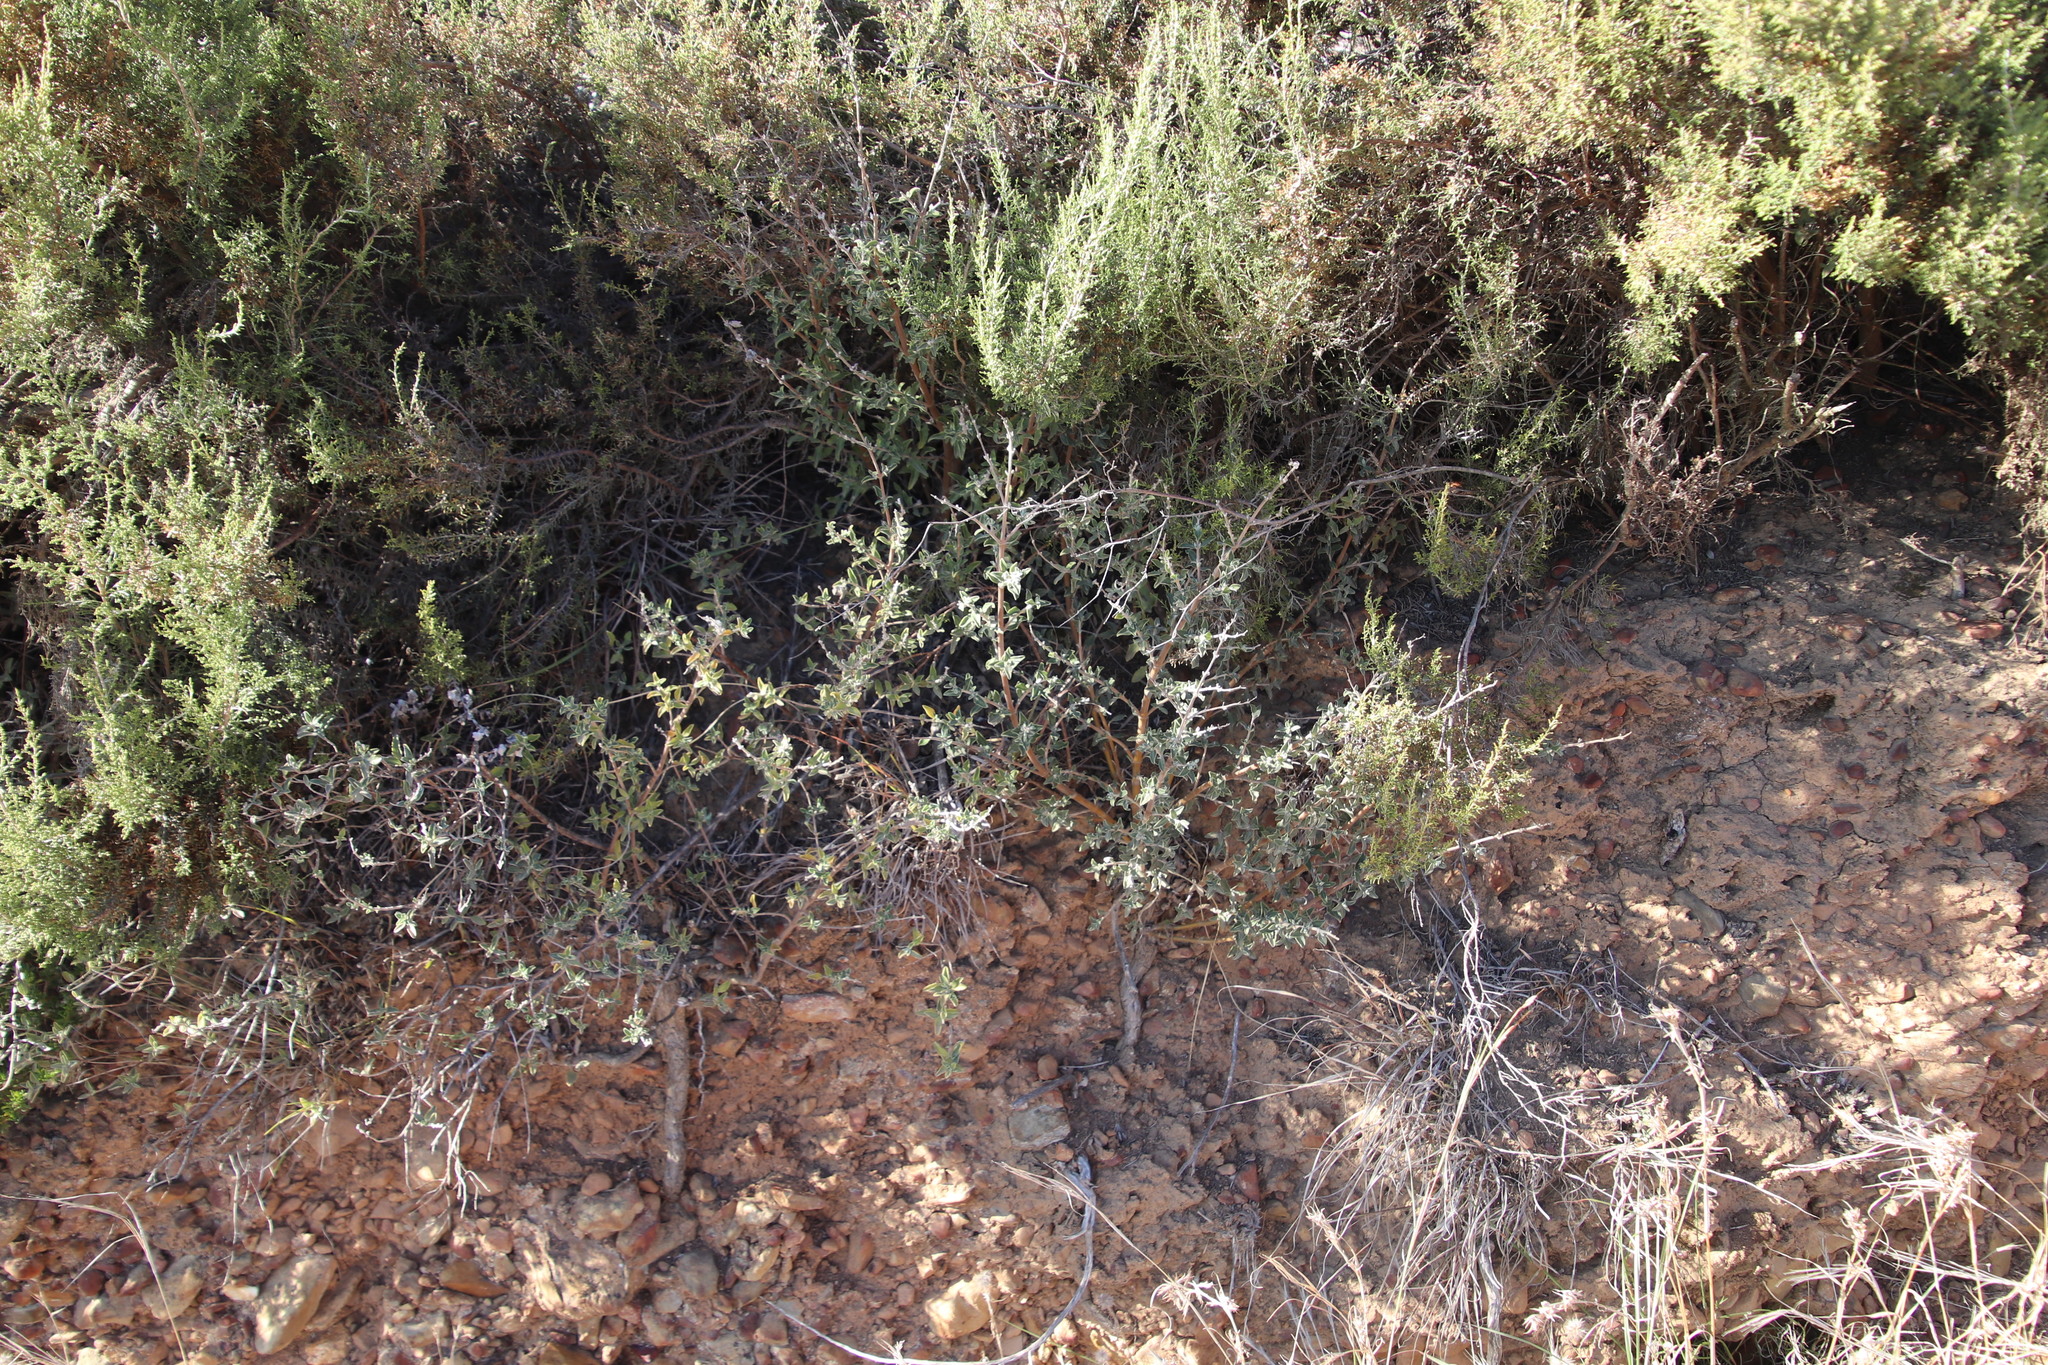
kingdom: Plantae
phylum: Tracheophyta
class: Magnoliopsida
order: Lamiales
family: Lamiaceae
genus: Salvia
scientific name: Salvia africana
